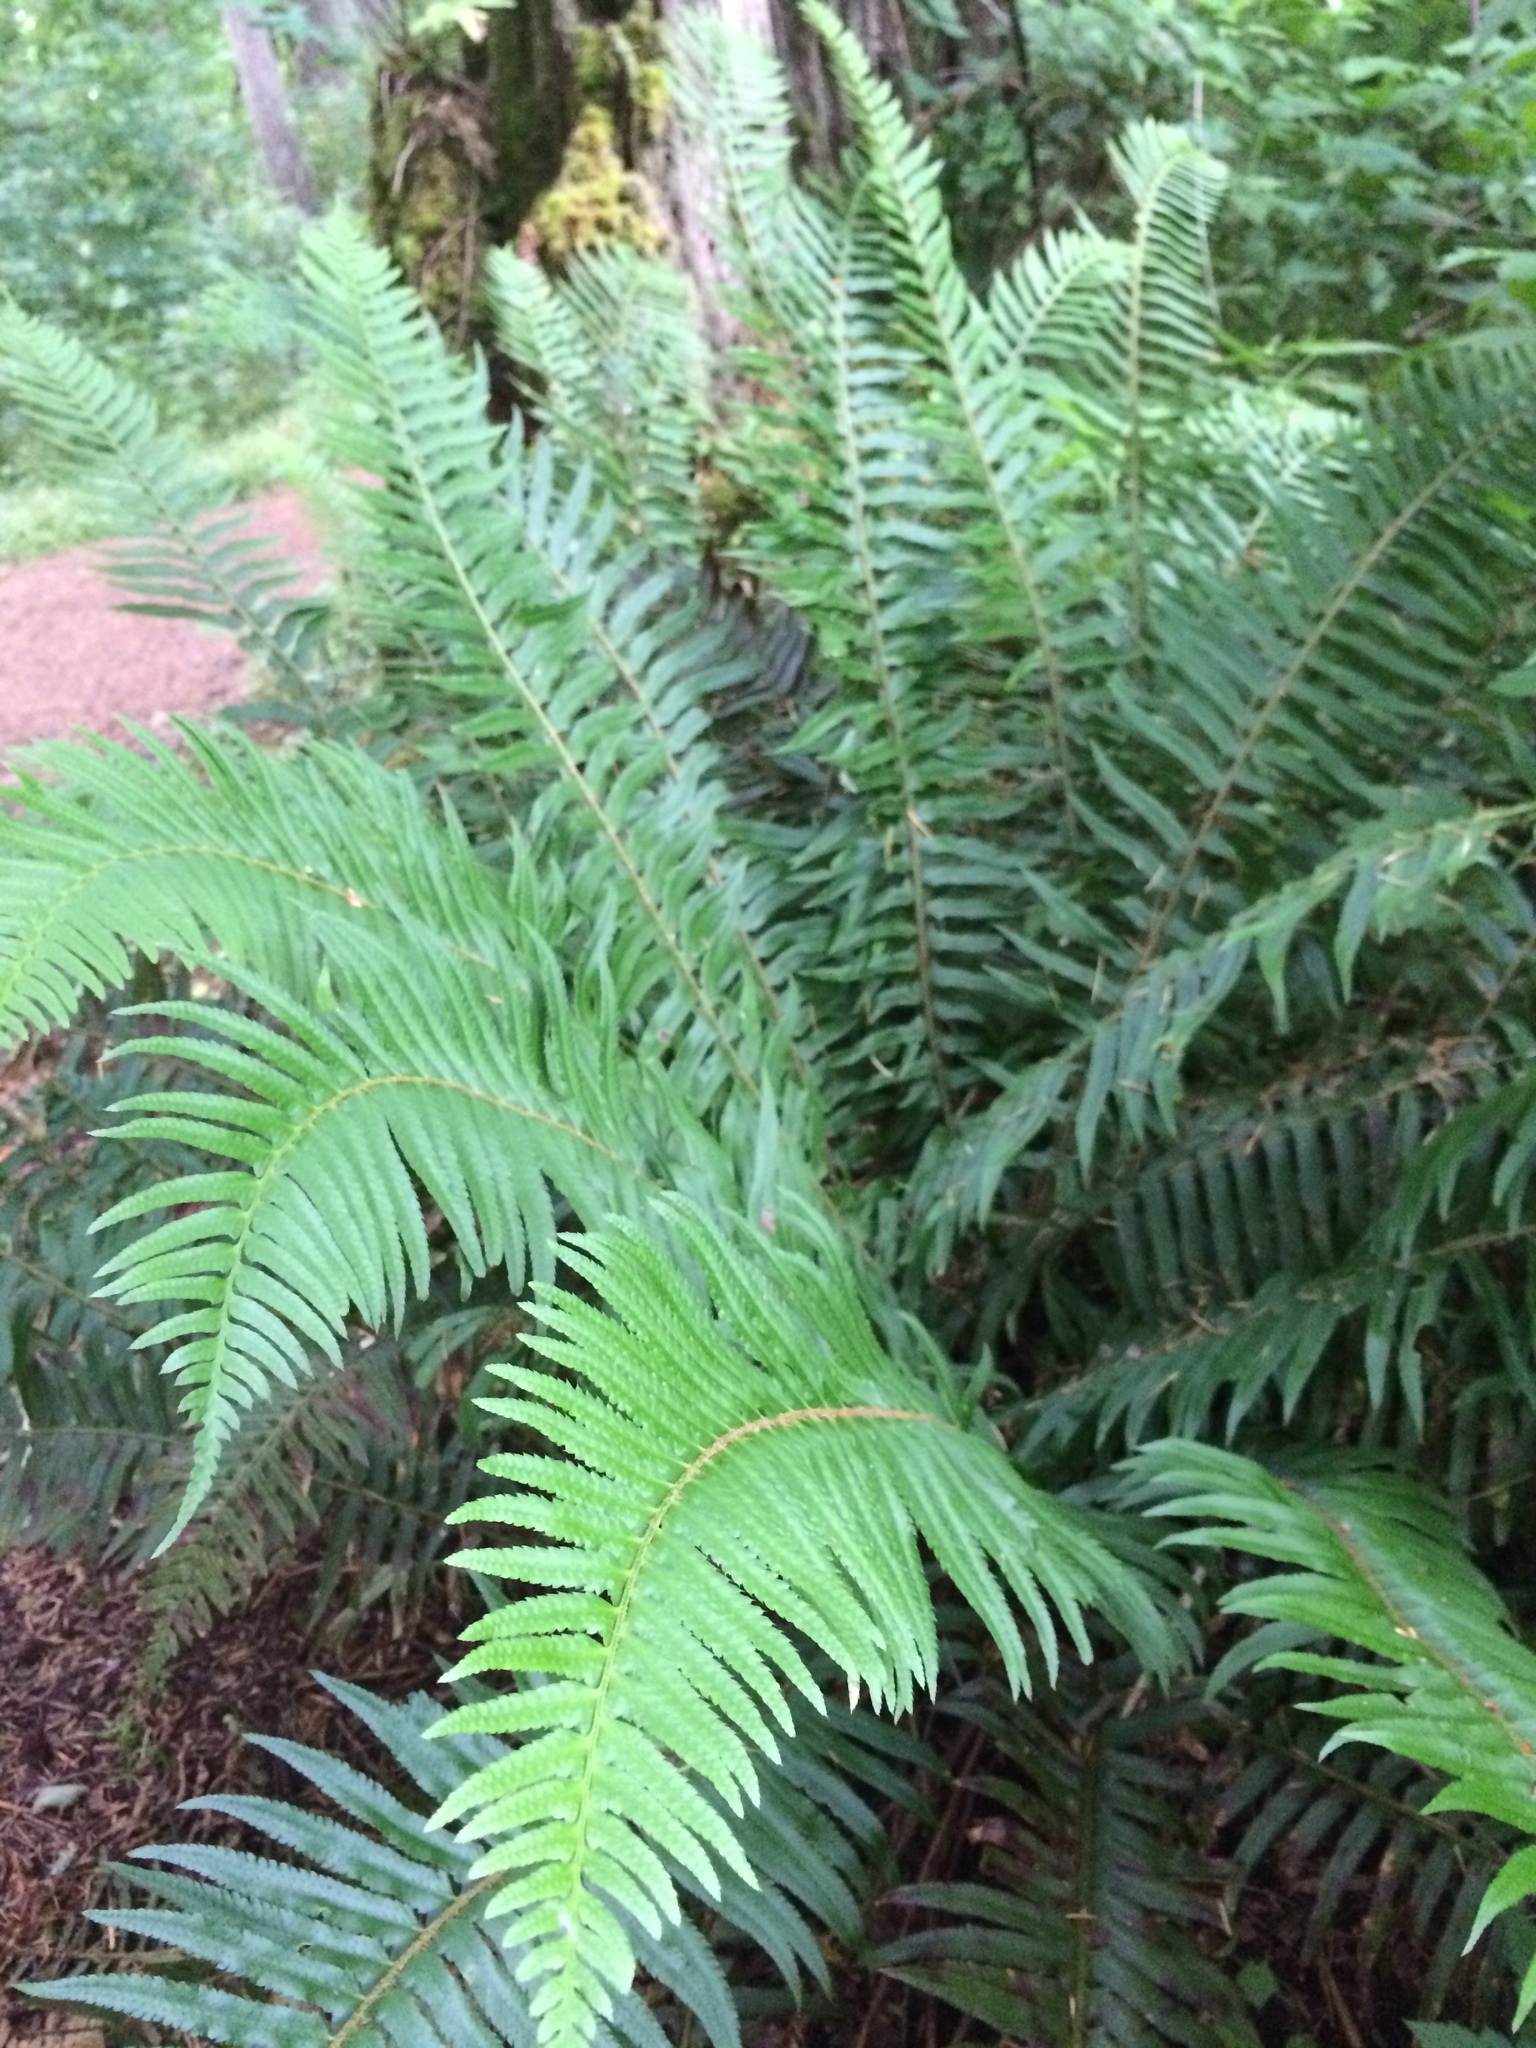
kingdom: Plantae
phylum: Tracheophyta
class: Polypodiopsida
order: Polypodiales
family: Dryopteridaceae
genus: Polystichum
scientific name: Polystichum munitum
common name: Western sword-fern
